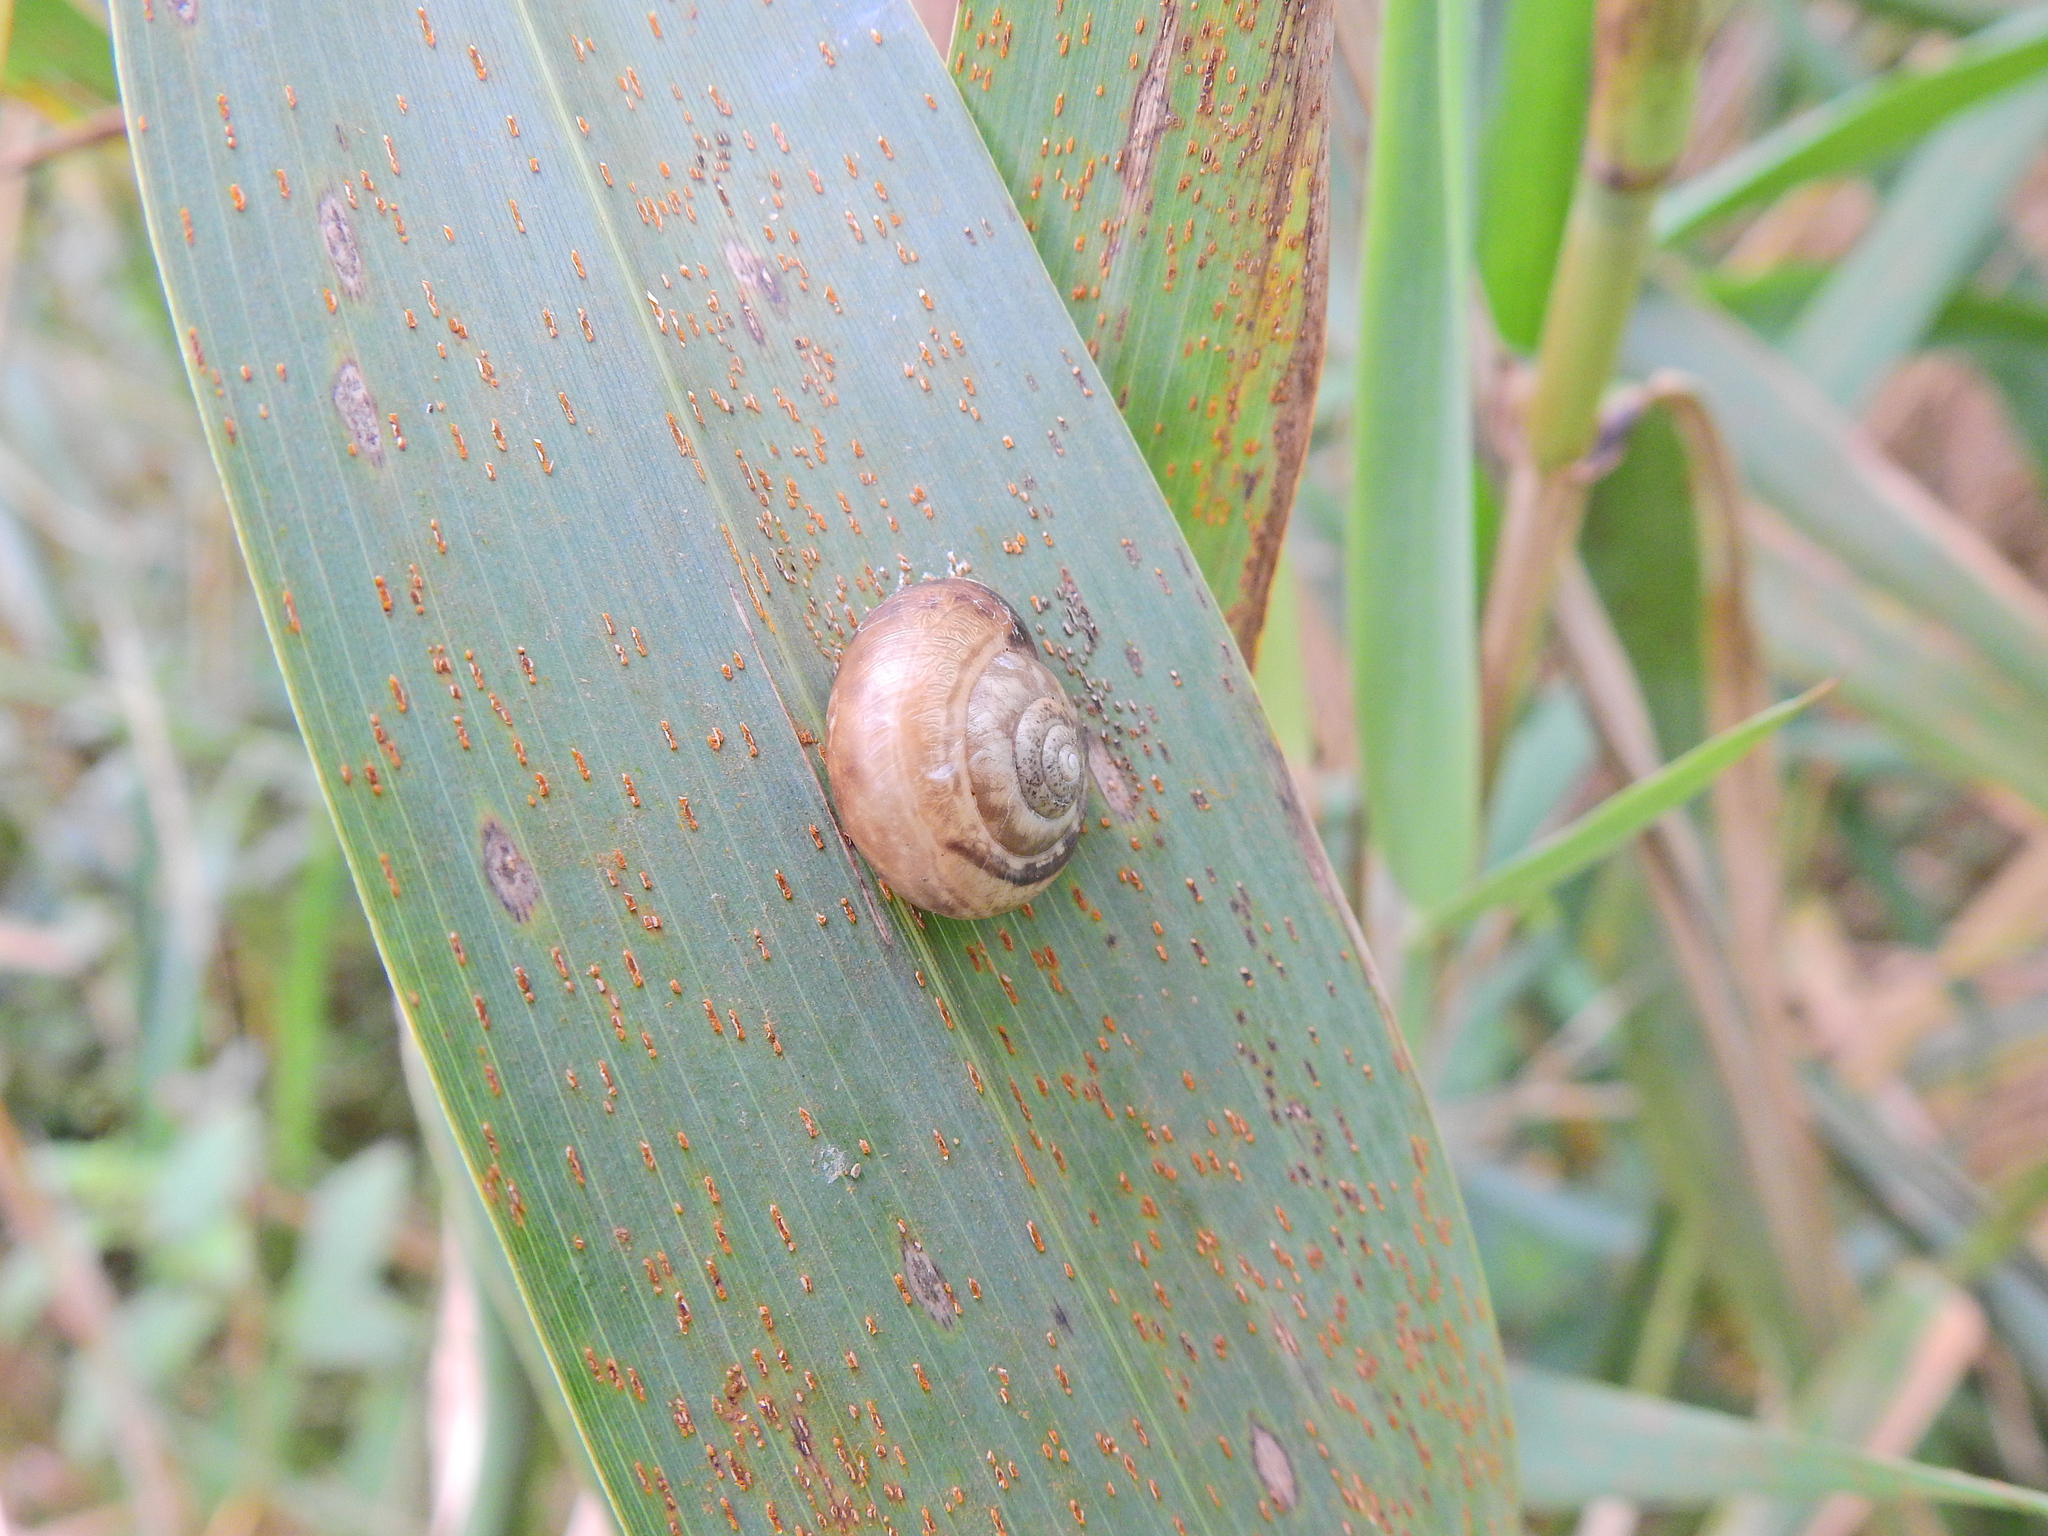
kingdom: Animalia
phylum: Mollusca
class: Gastropoda
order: Stylommatophora
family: Hygromiidae
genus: Monacha
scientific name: Monacha cantiana
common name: Kentish snail
